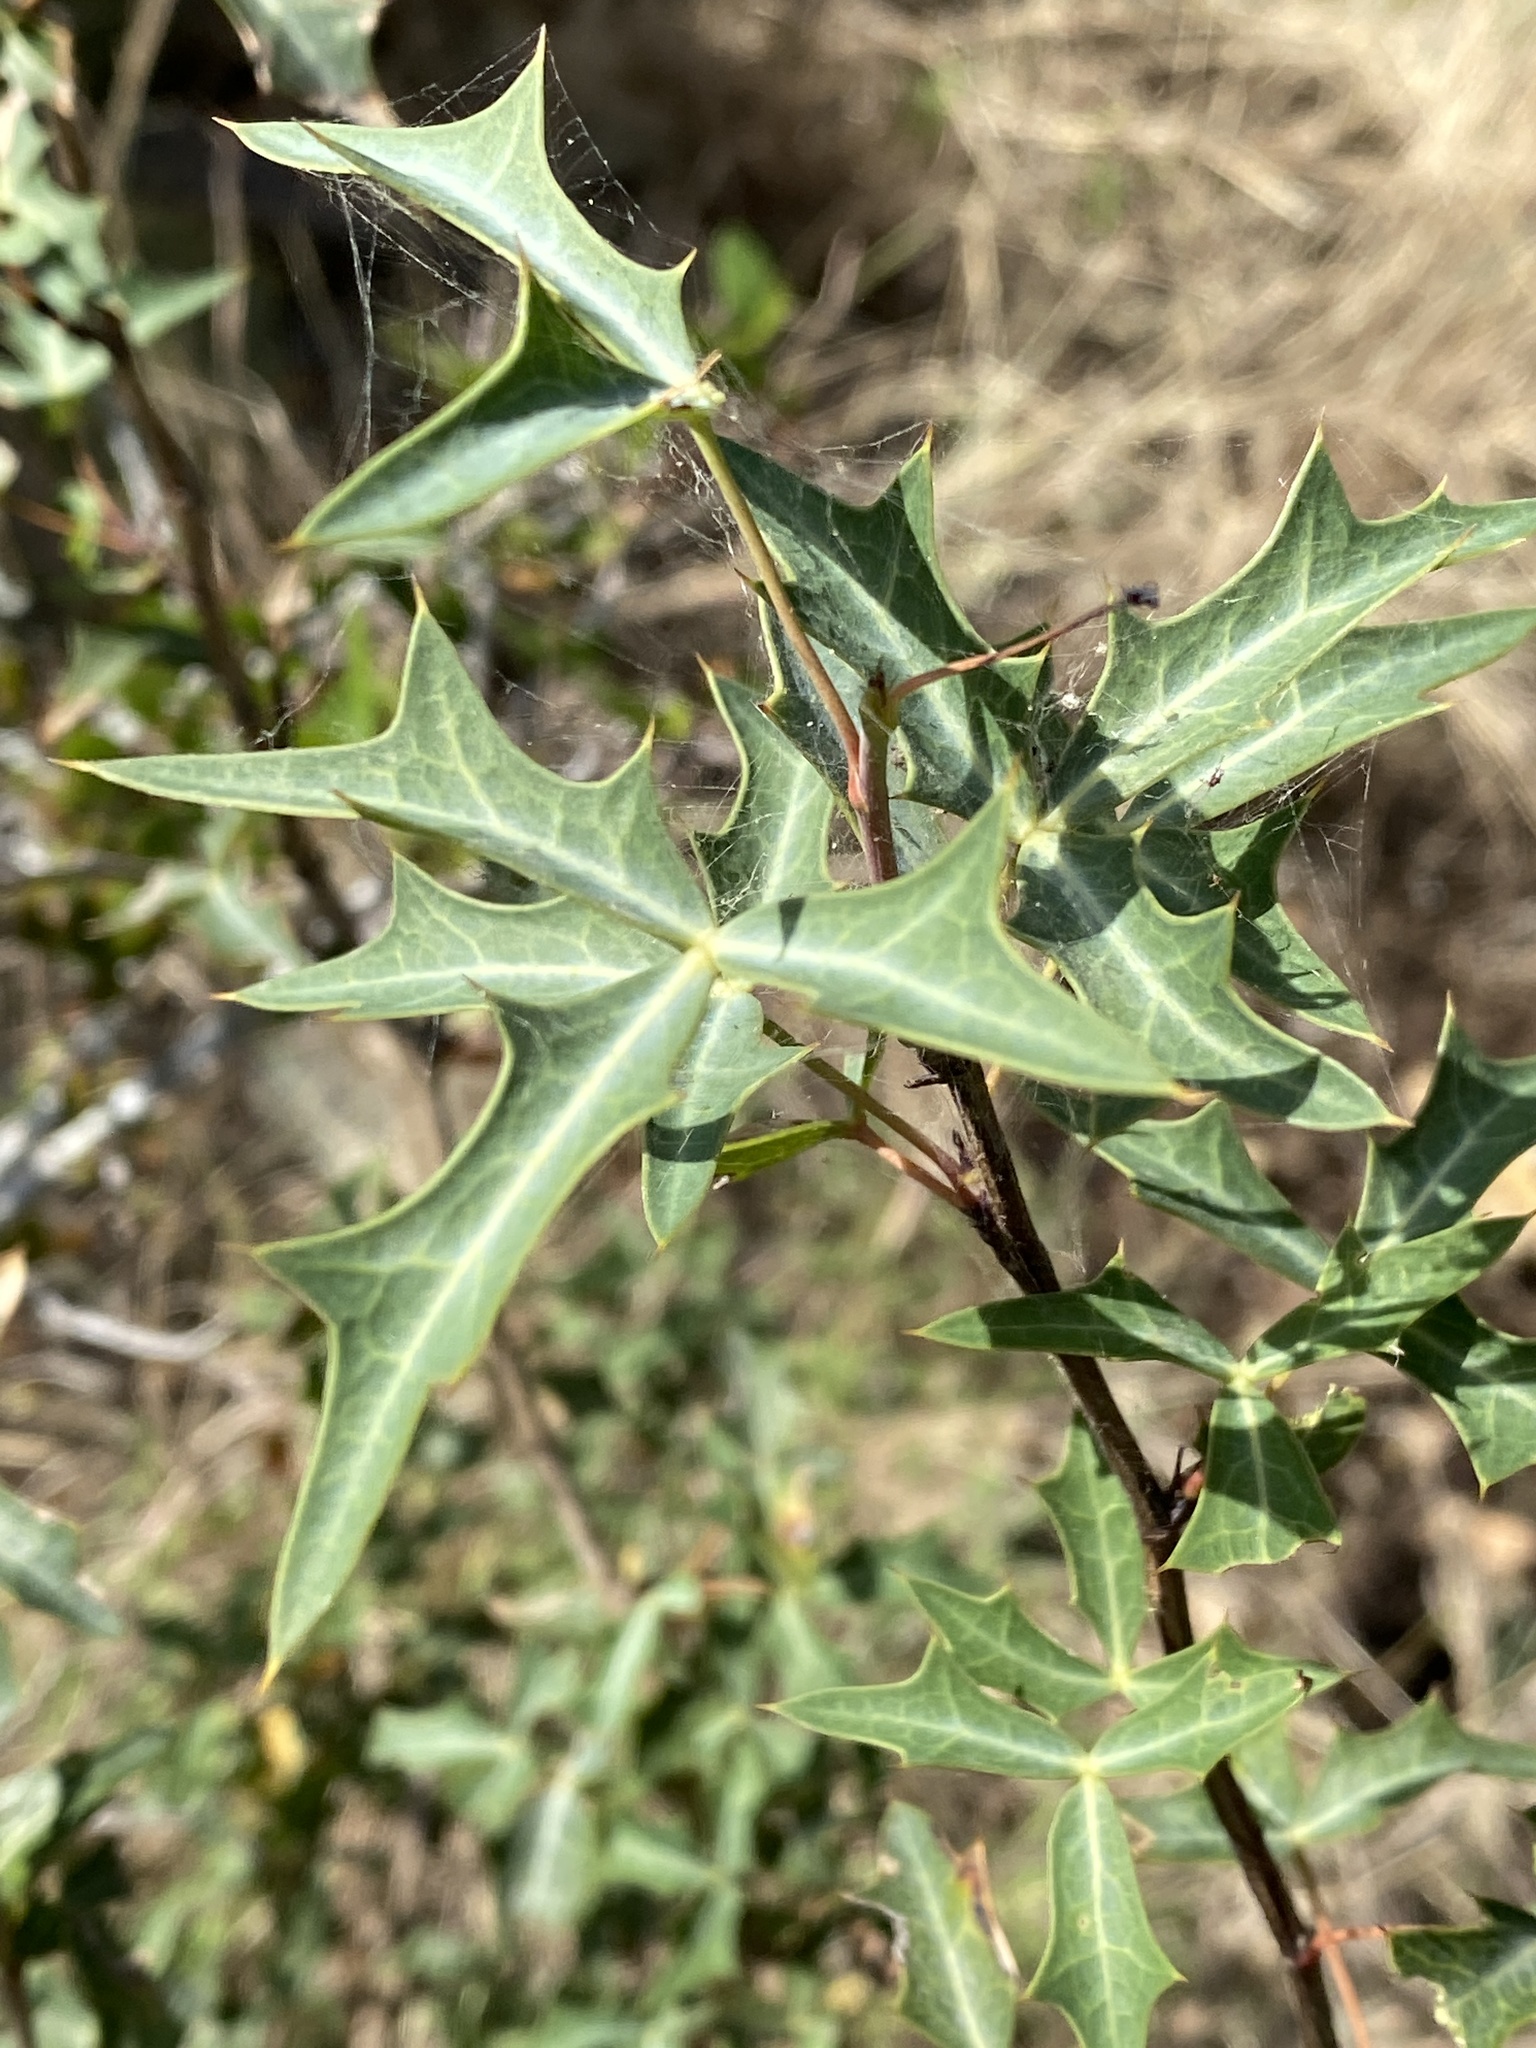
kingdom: Plantae
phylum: Tracheophyta
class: Magnoliopsida
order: Ranunculales
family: Berberidaceae
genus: Alloberberis
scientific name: Alloberberis trifoliolata
